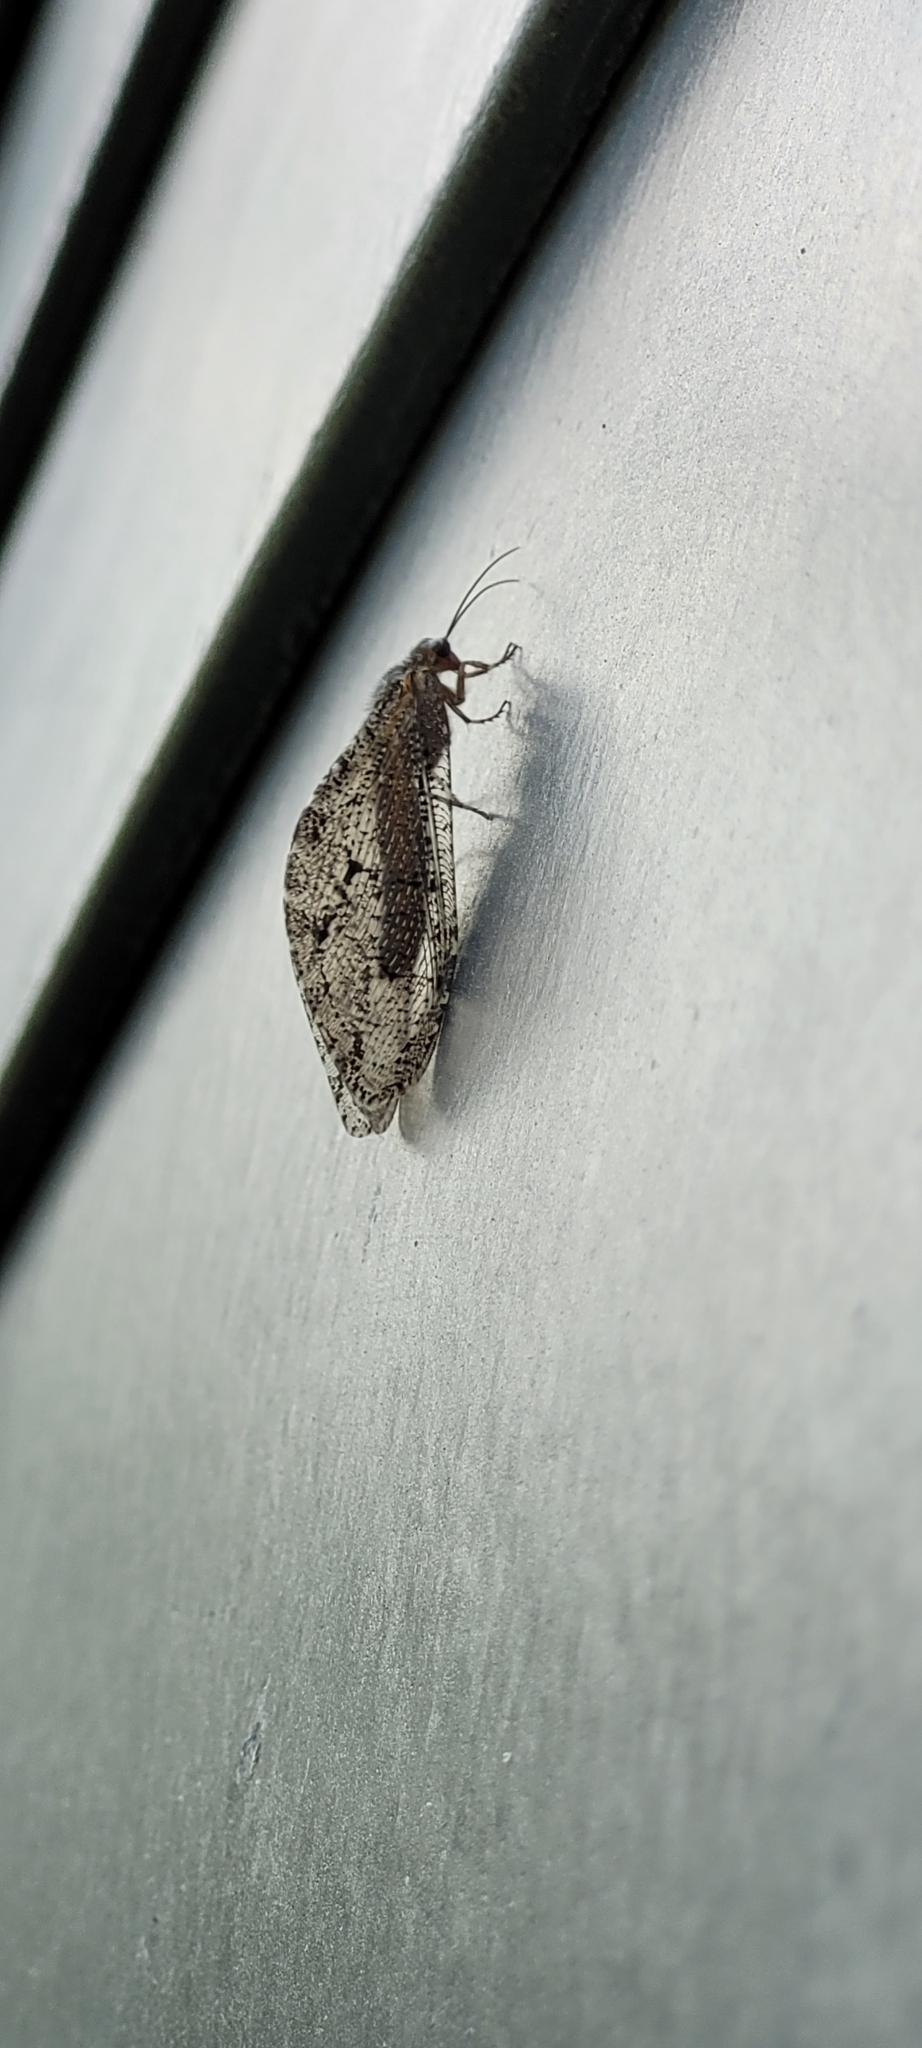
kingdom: Animalia
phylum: Arthropoda
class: Insecta
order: Neuroptera
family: Ithonidae
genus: Polystoechotes
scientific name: Polystoechotes punctata
